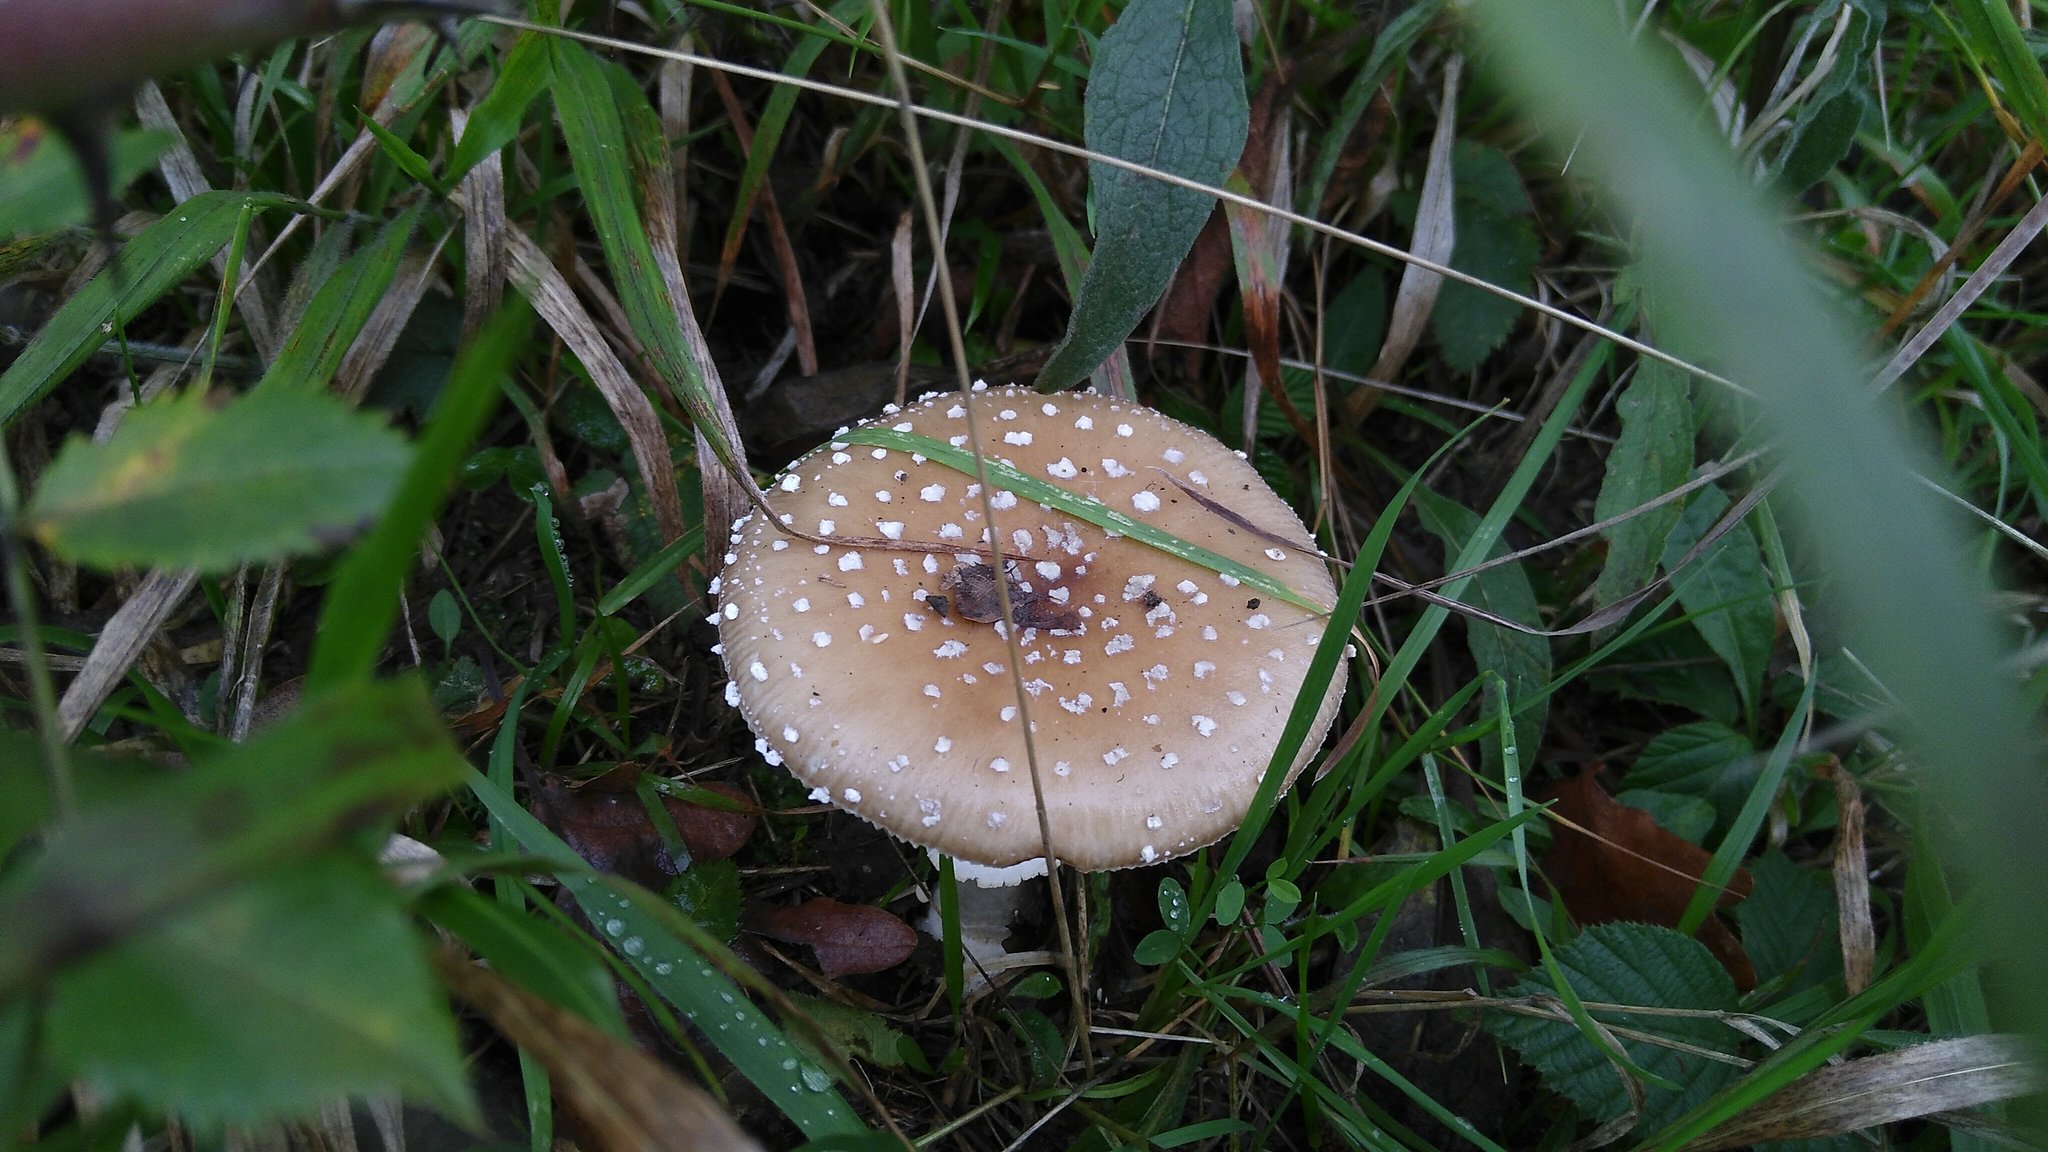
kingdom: Fungi
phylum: Basidiomycota
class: Agaricomycetes
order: Agaricales
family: Amanitaceae
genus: Amanita
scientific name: Amanita pantherina
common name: Panthercap
